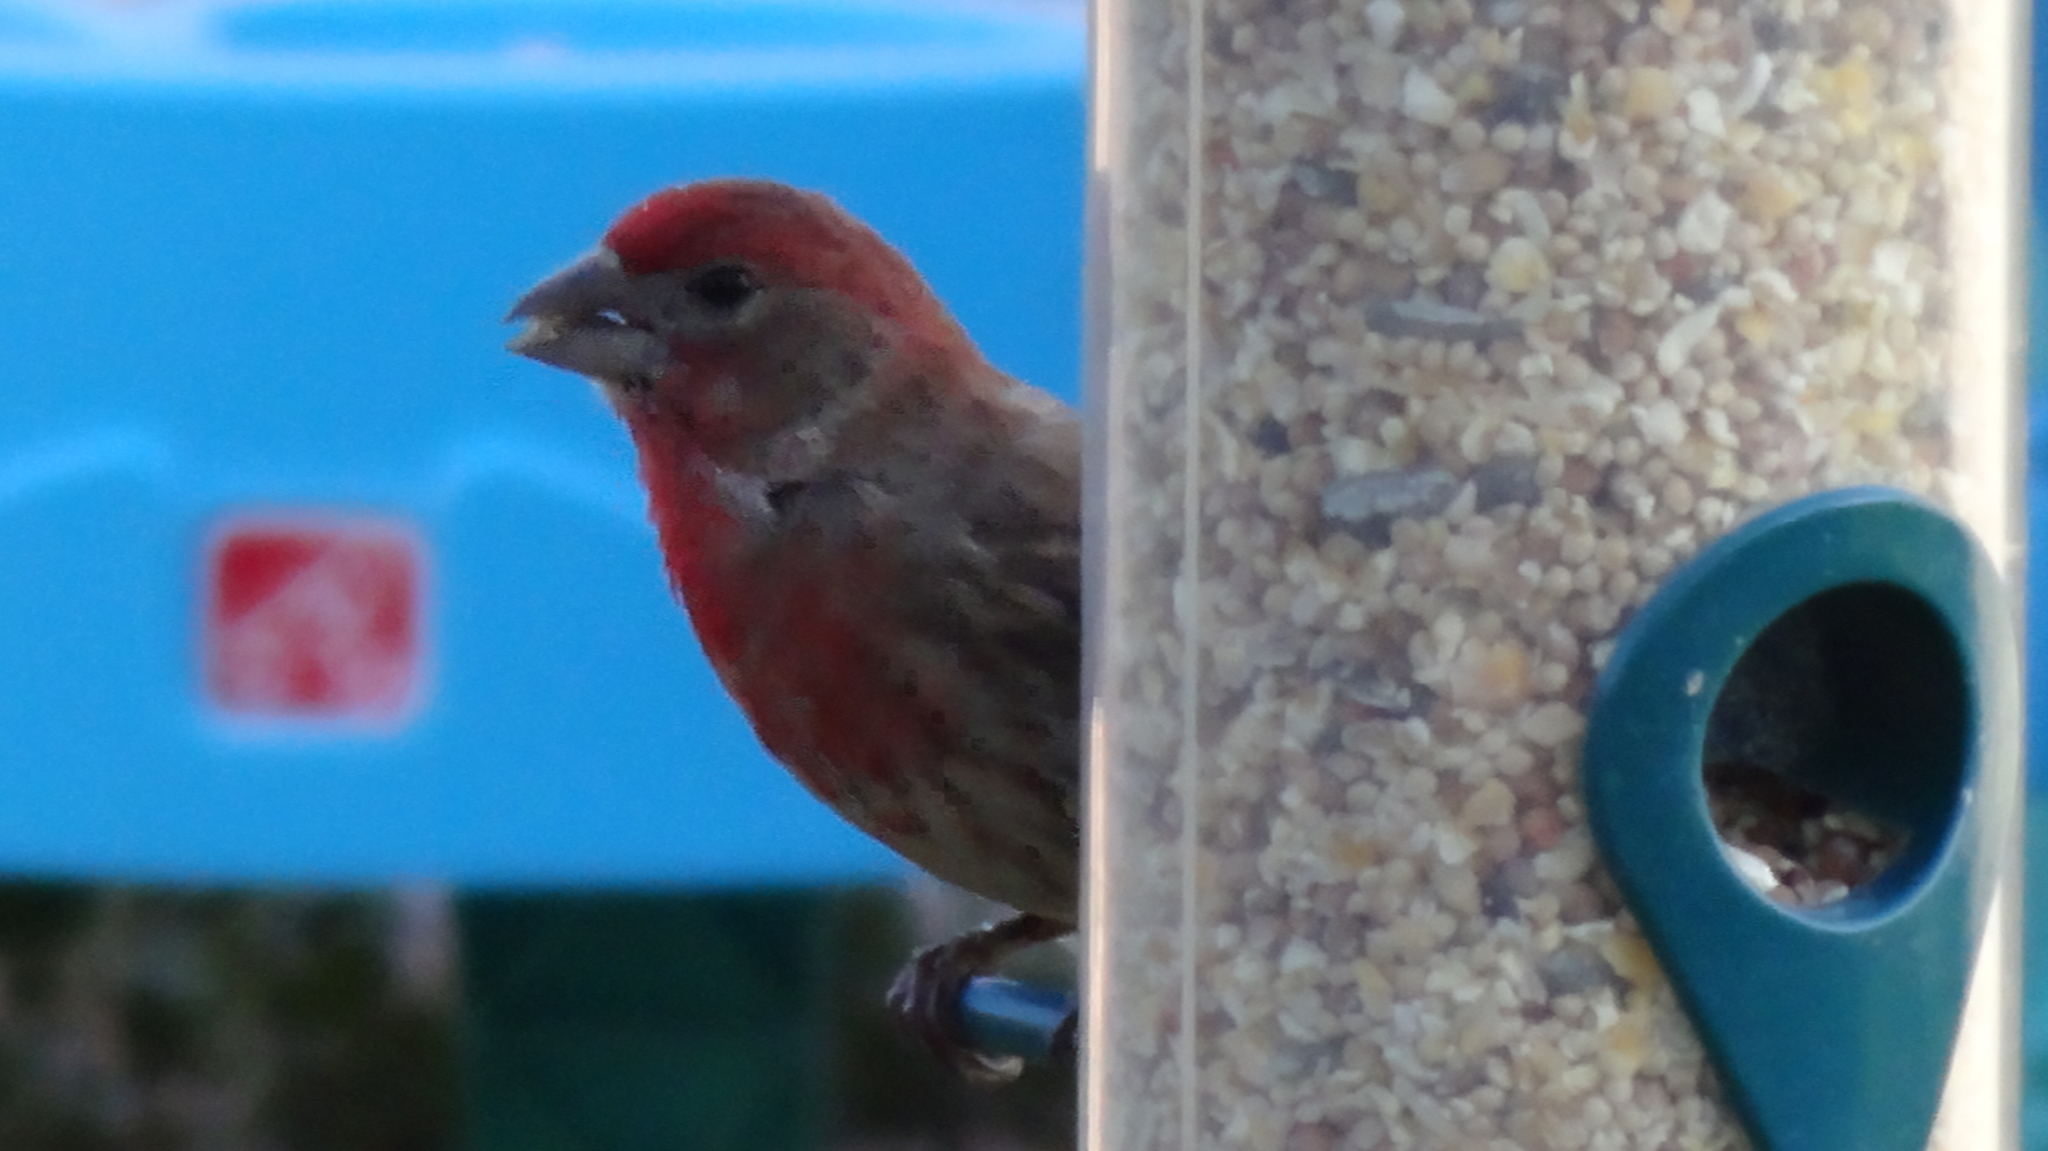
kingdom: Animalia
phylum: Chordata
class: Aves
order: Passeriformes
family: Fringillidae
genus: Haemorhous
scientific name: Haemorhous mexicanus
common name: House finch
